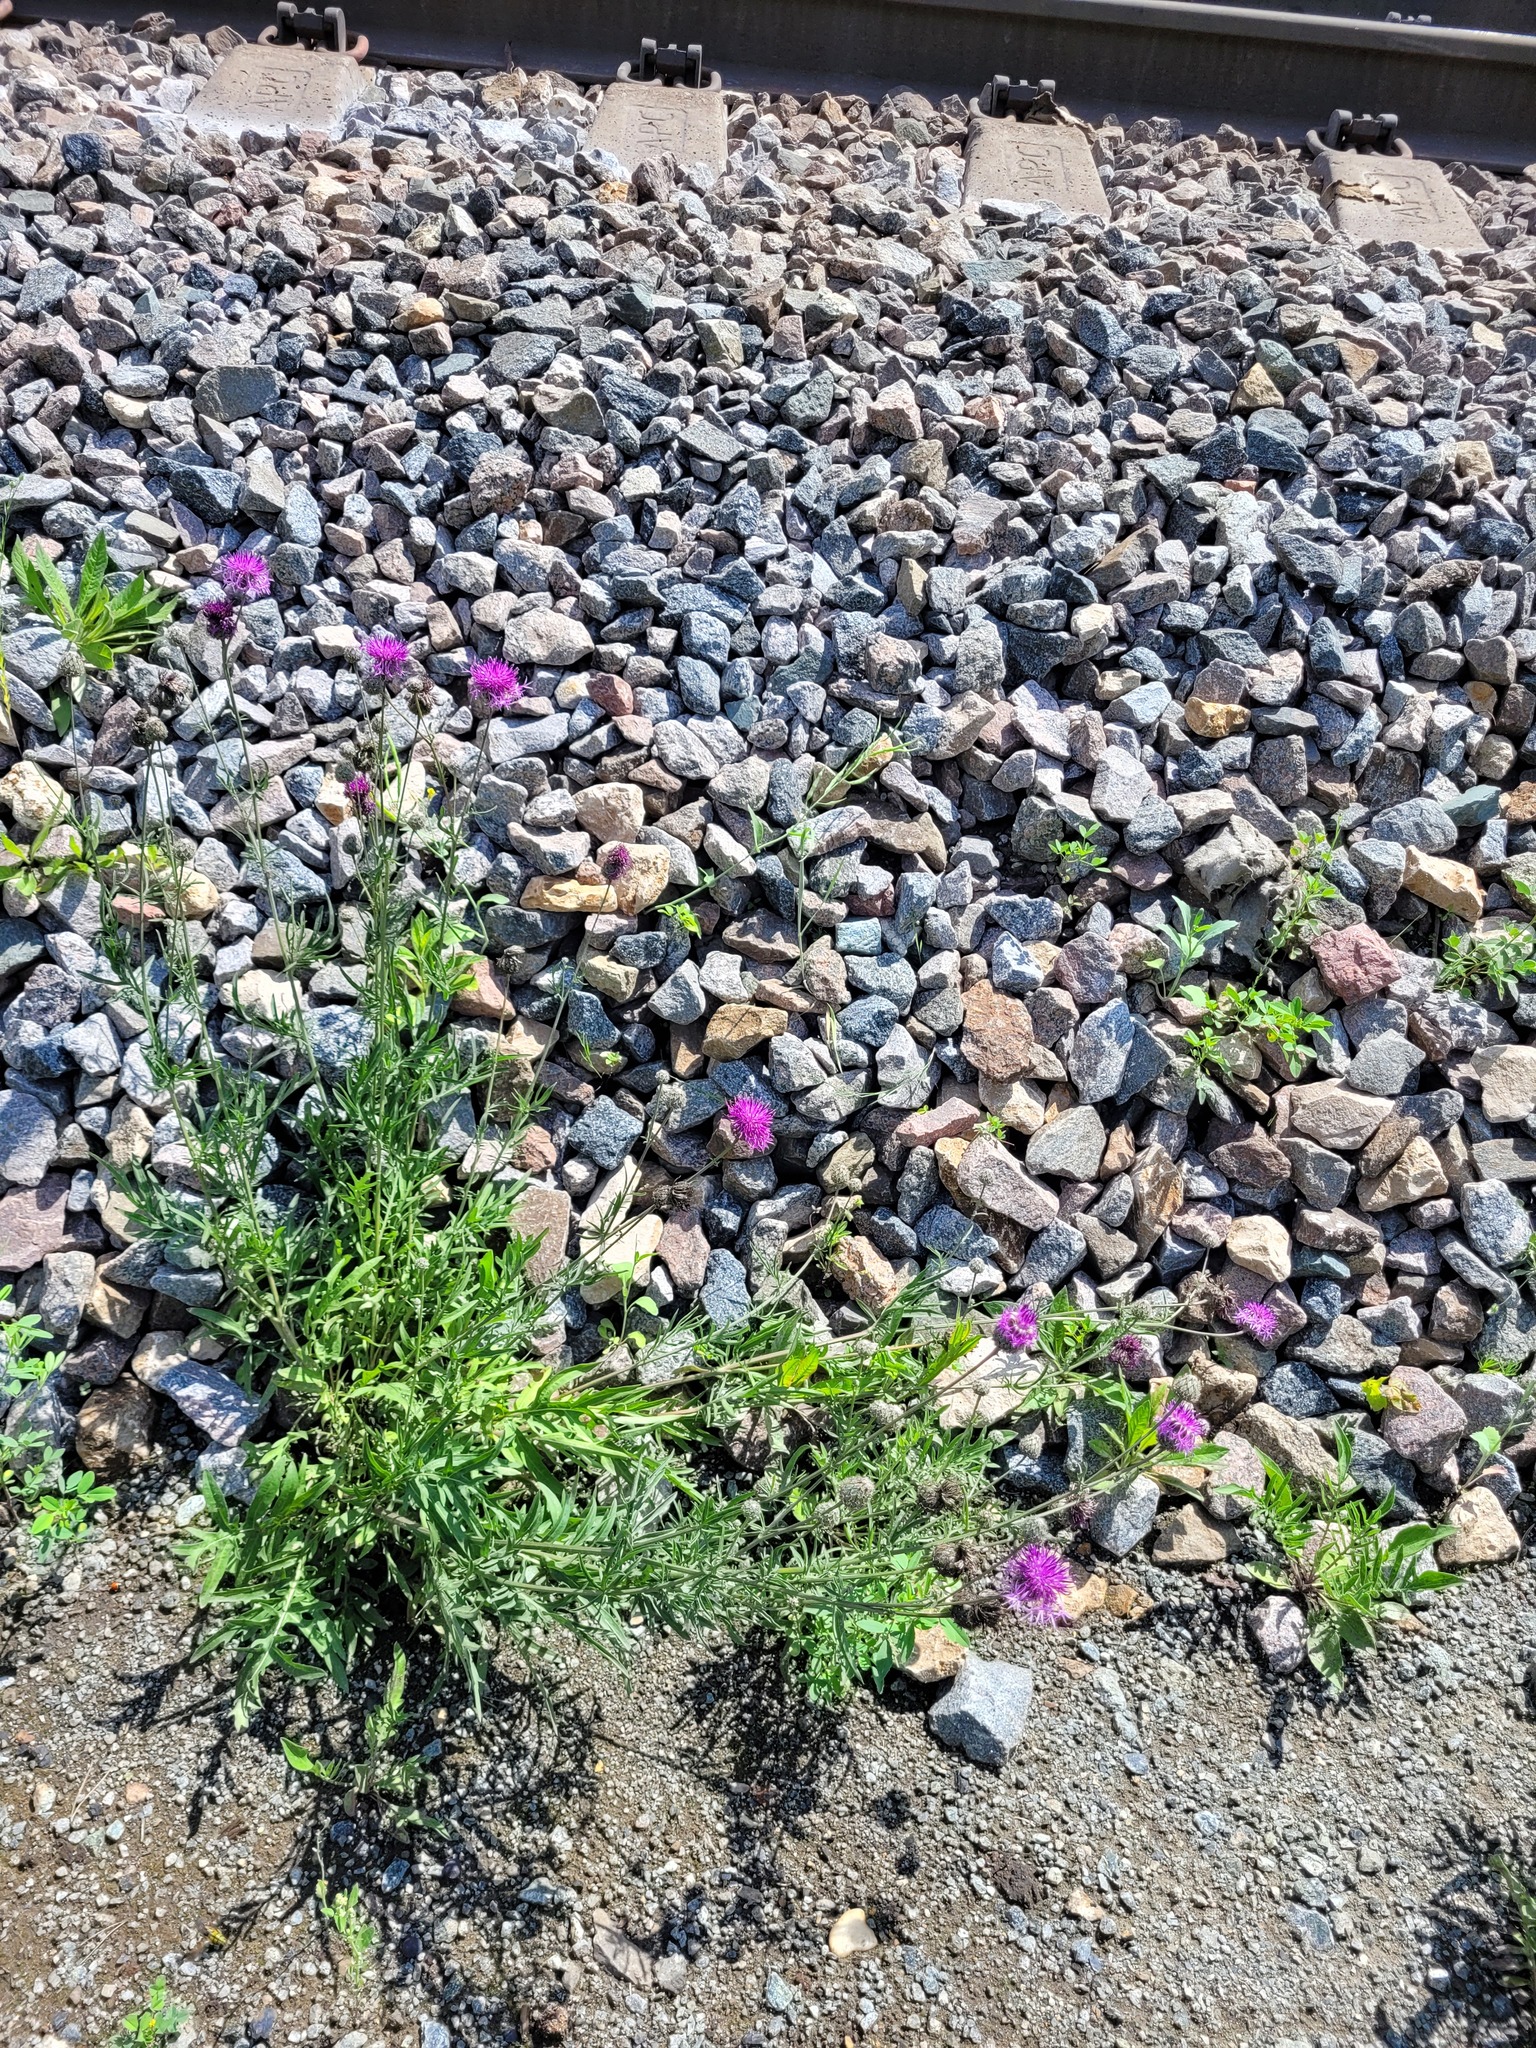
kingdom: Plantae
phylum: Tracheophyta
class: Magnoliopsida
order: Asterales
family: Asteraceae
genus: Centaurea
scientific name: Centaurea scabiosa
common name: Greater knapweed
